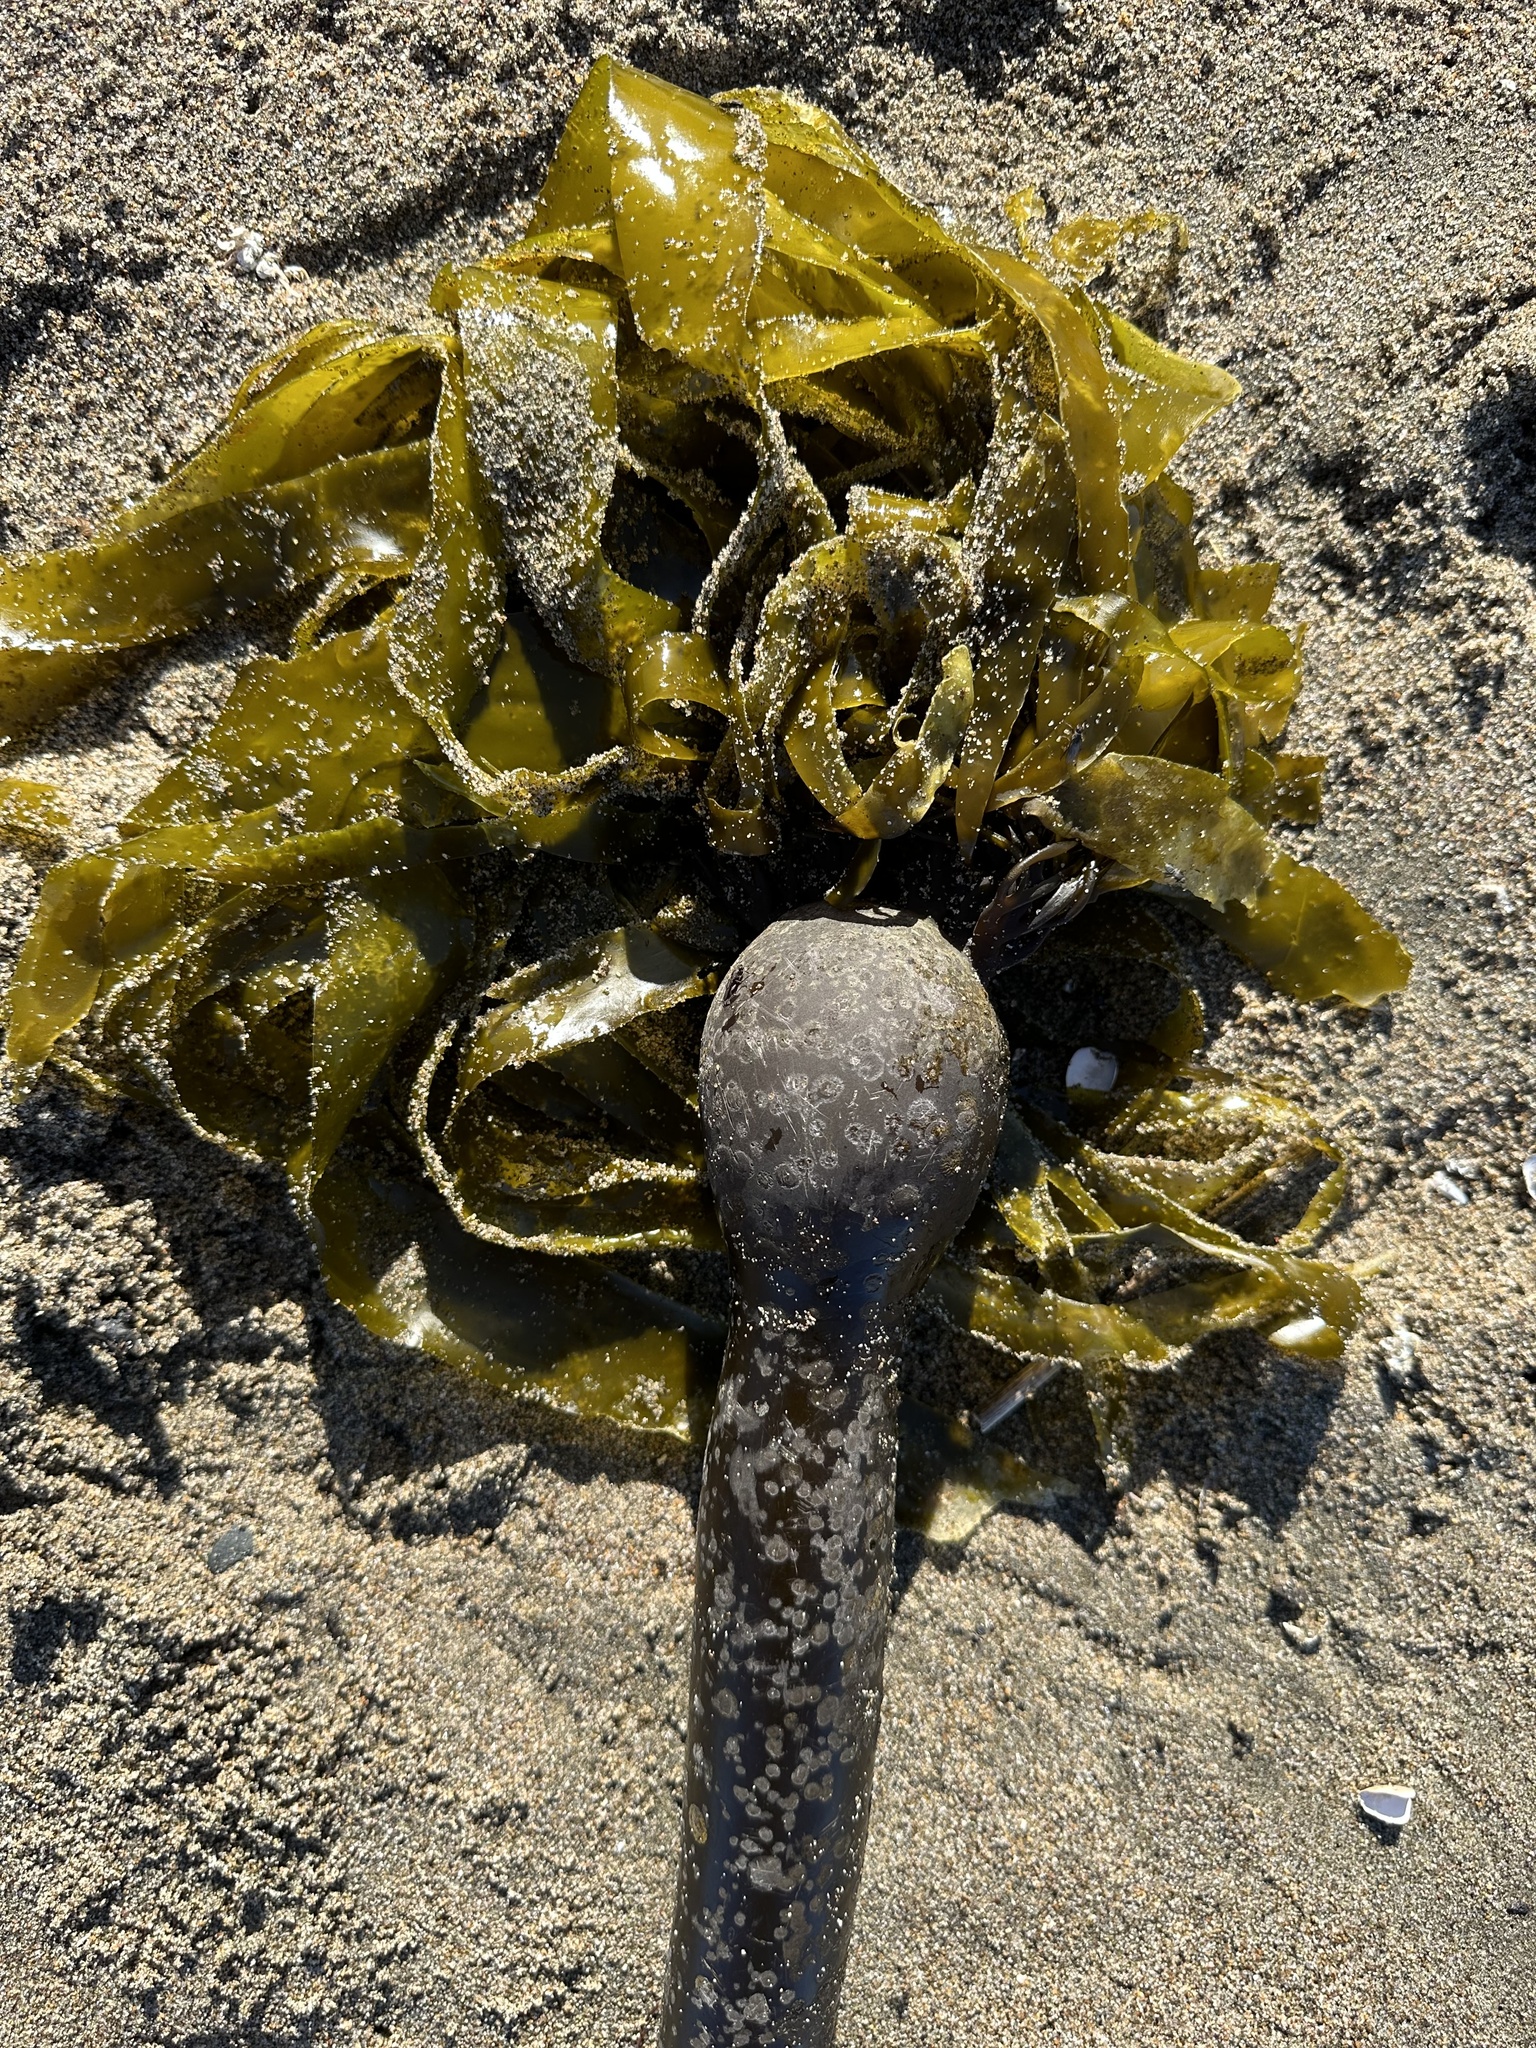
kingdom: Chromista
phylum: Ochrophyta
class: Phaeophyceae
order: Laminariales
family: Laminariaceae
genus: Nereocystis
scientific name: Nereocystis luetkeana
